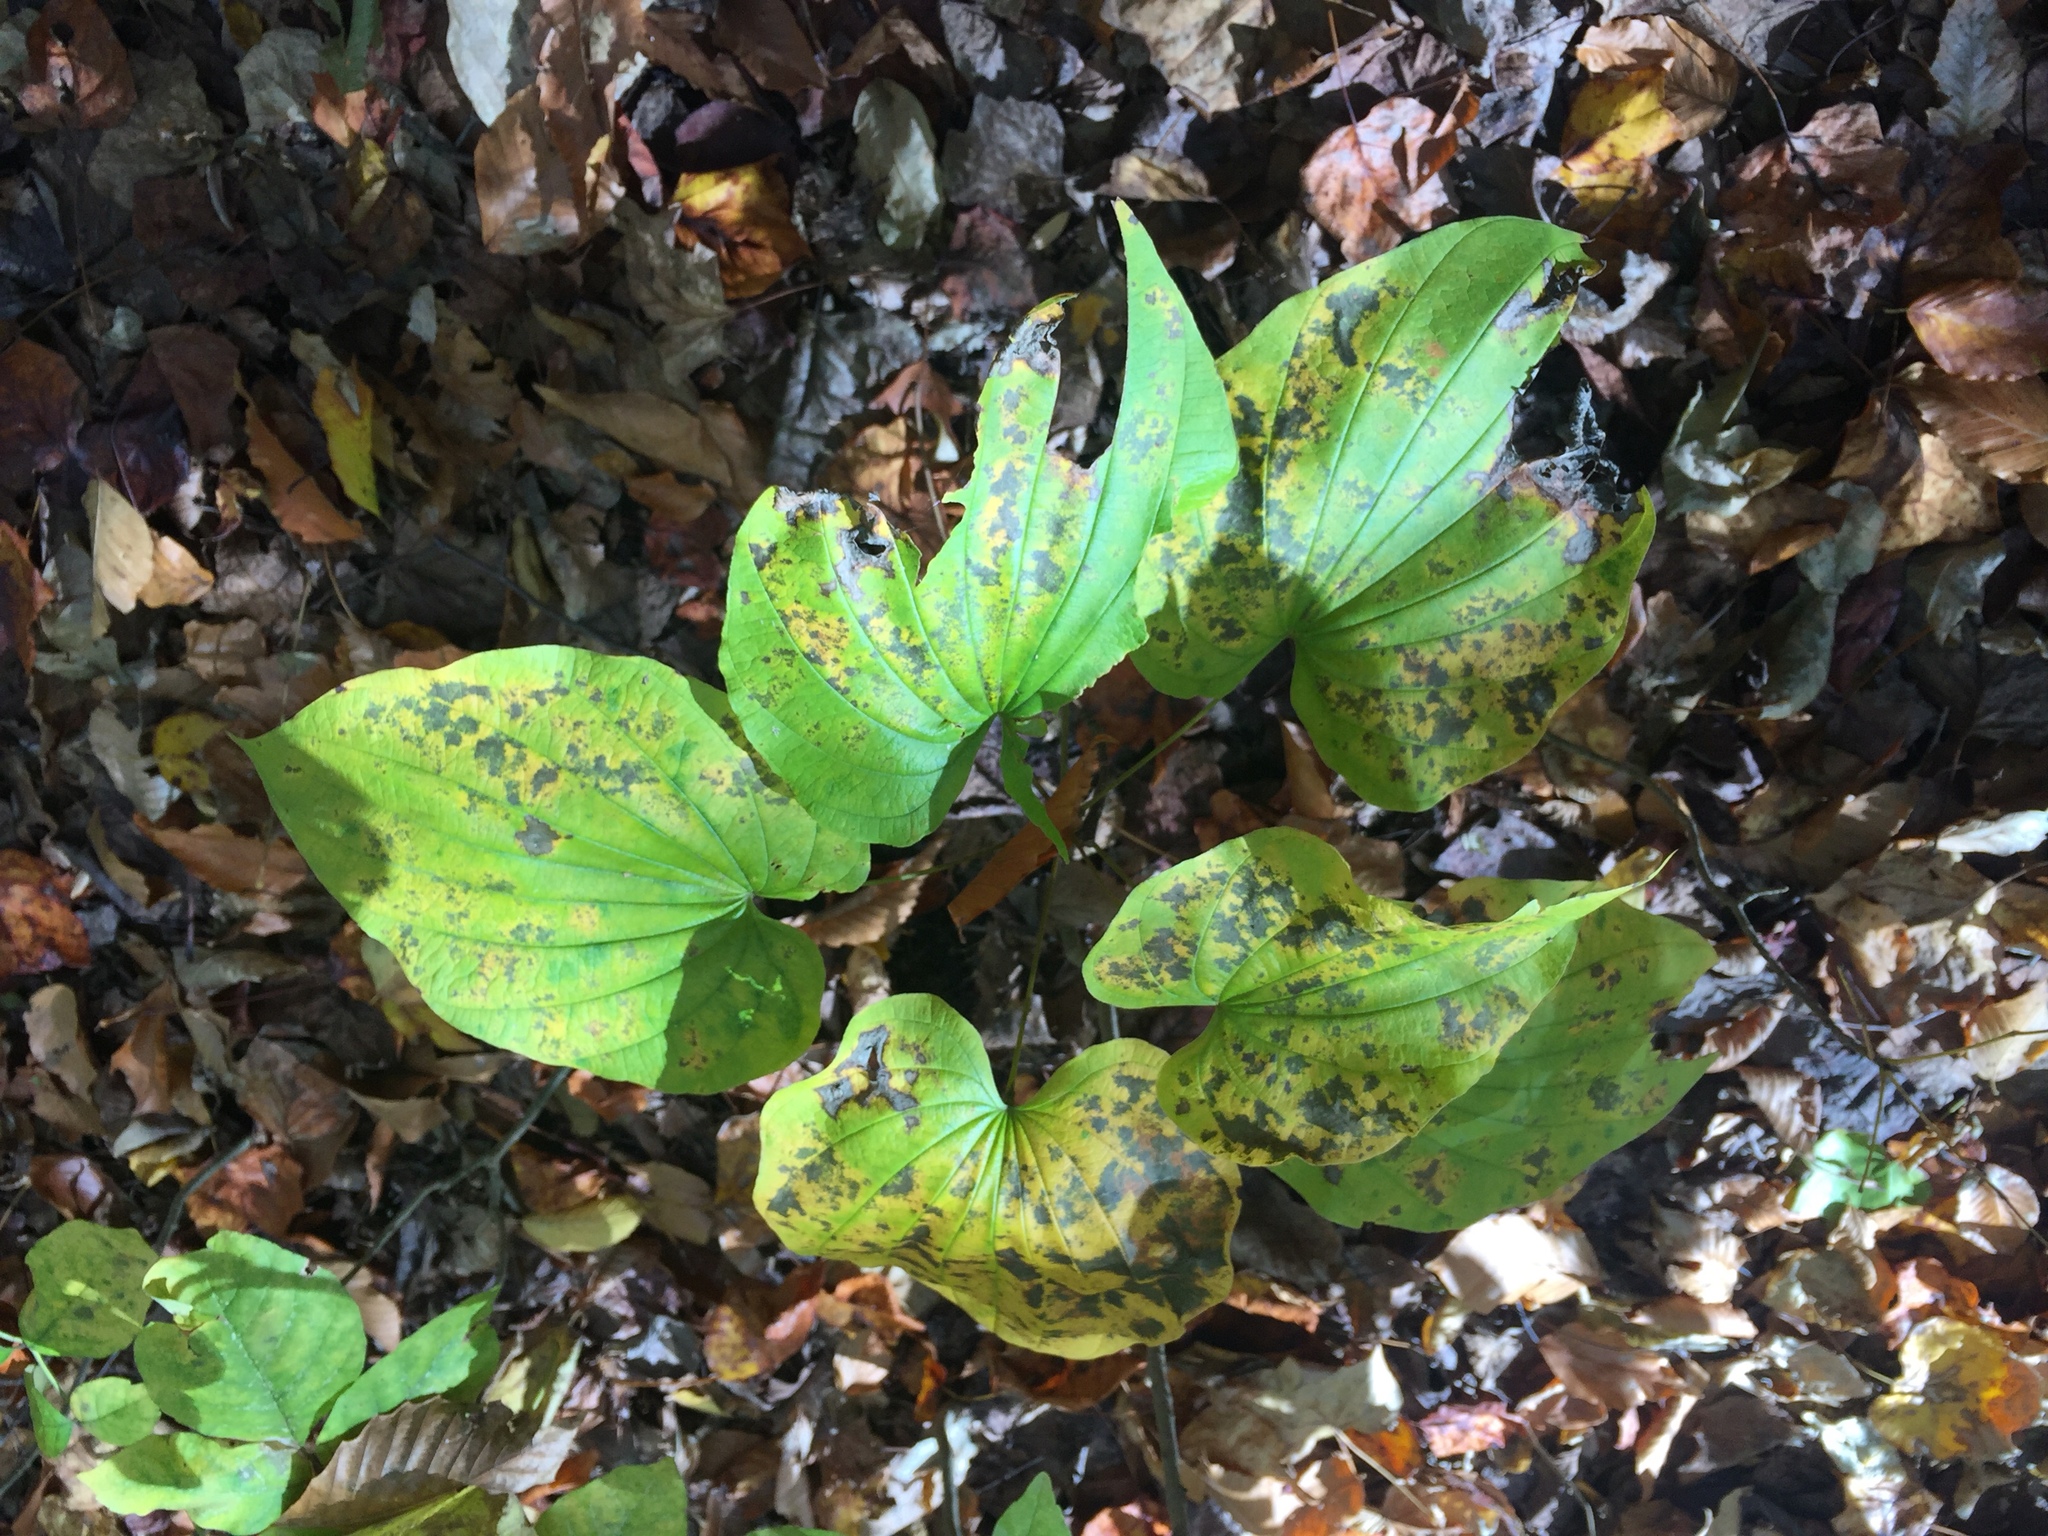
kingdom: Plantae
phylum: Tracheophyta
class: Liliopsida
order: Dioscoreales
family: Dioscoreaceae
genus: Dioscorea
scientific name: Dioscorea villosa
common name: Wild yam
